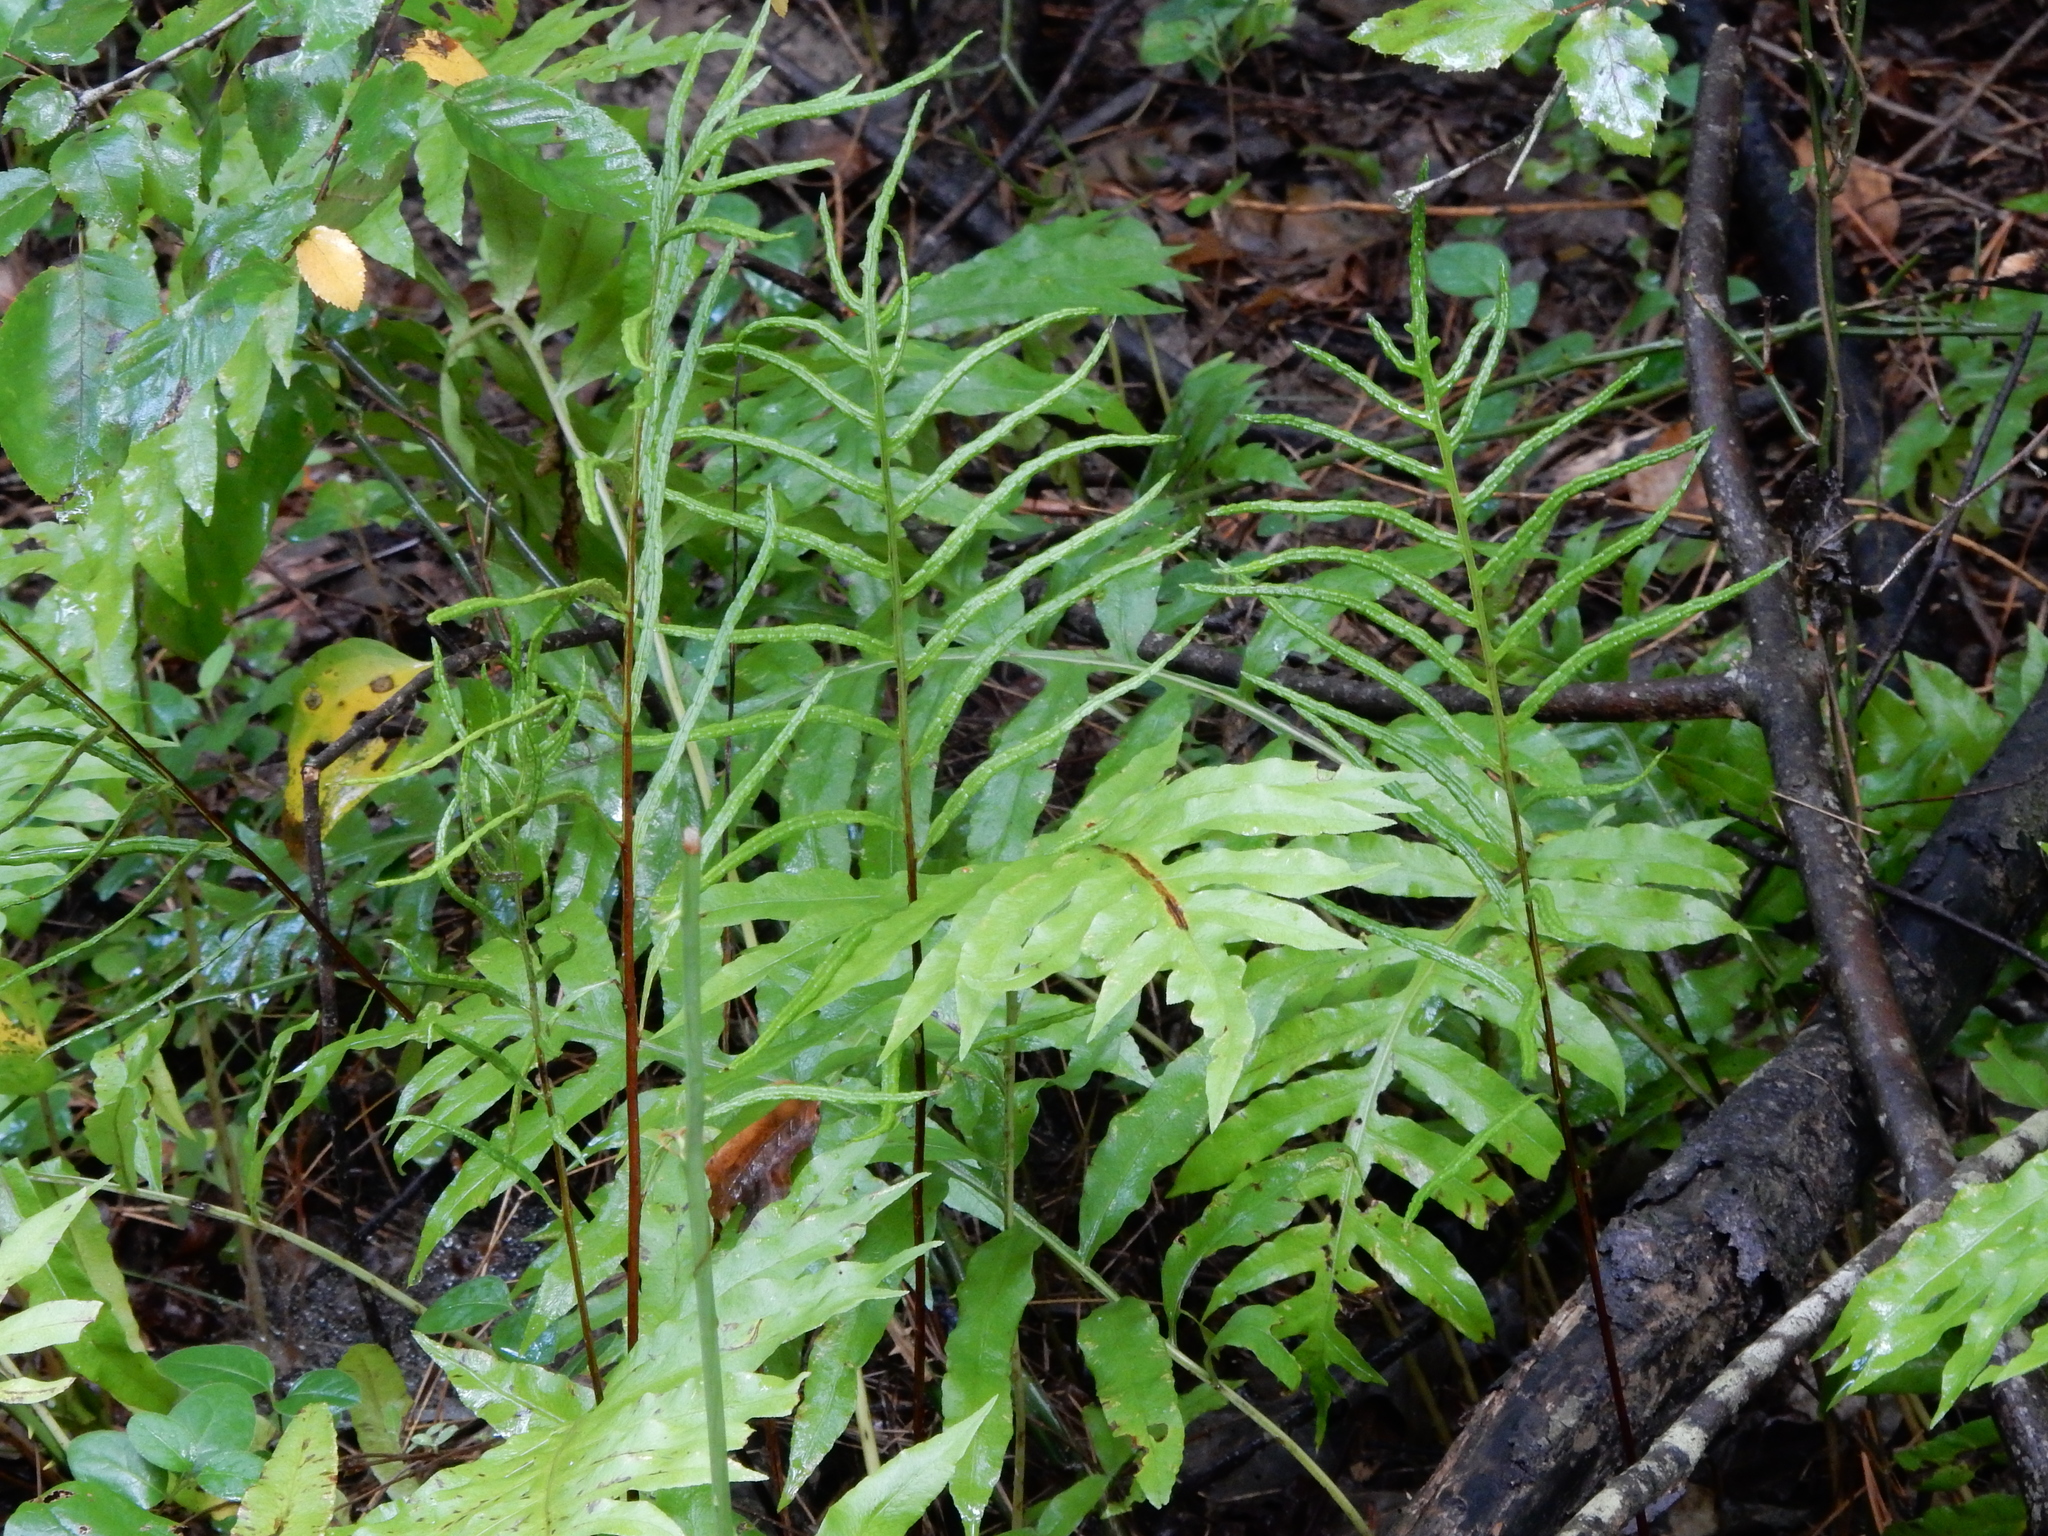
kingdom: Plantae
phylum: Tracheophyta
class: Polypodiopsida
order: Polypodiales
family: Blechnaceae
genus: Lorinseria
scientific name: Lorinseria areolata
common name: Dwarf chain fern
